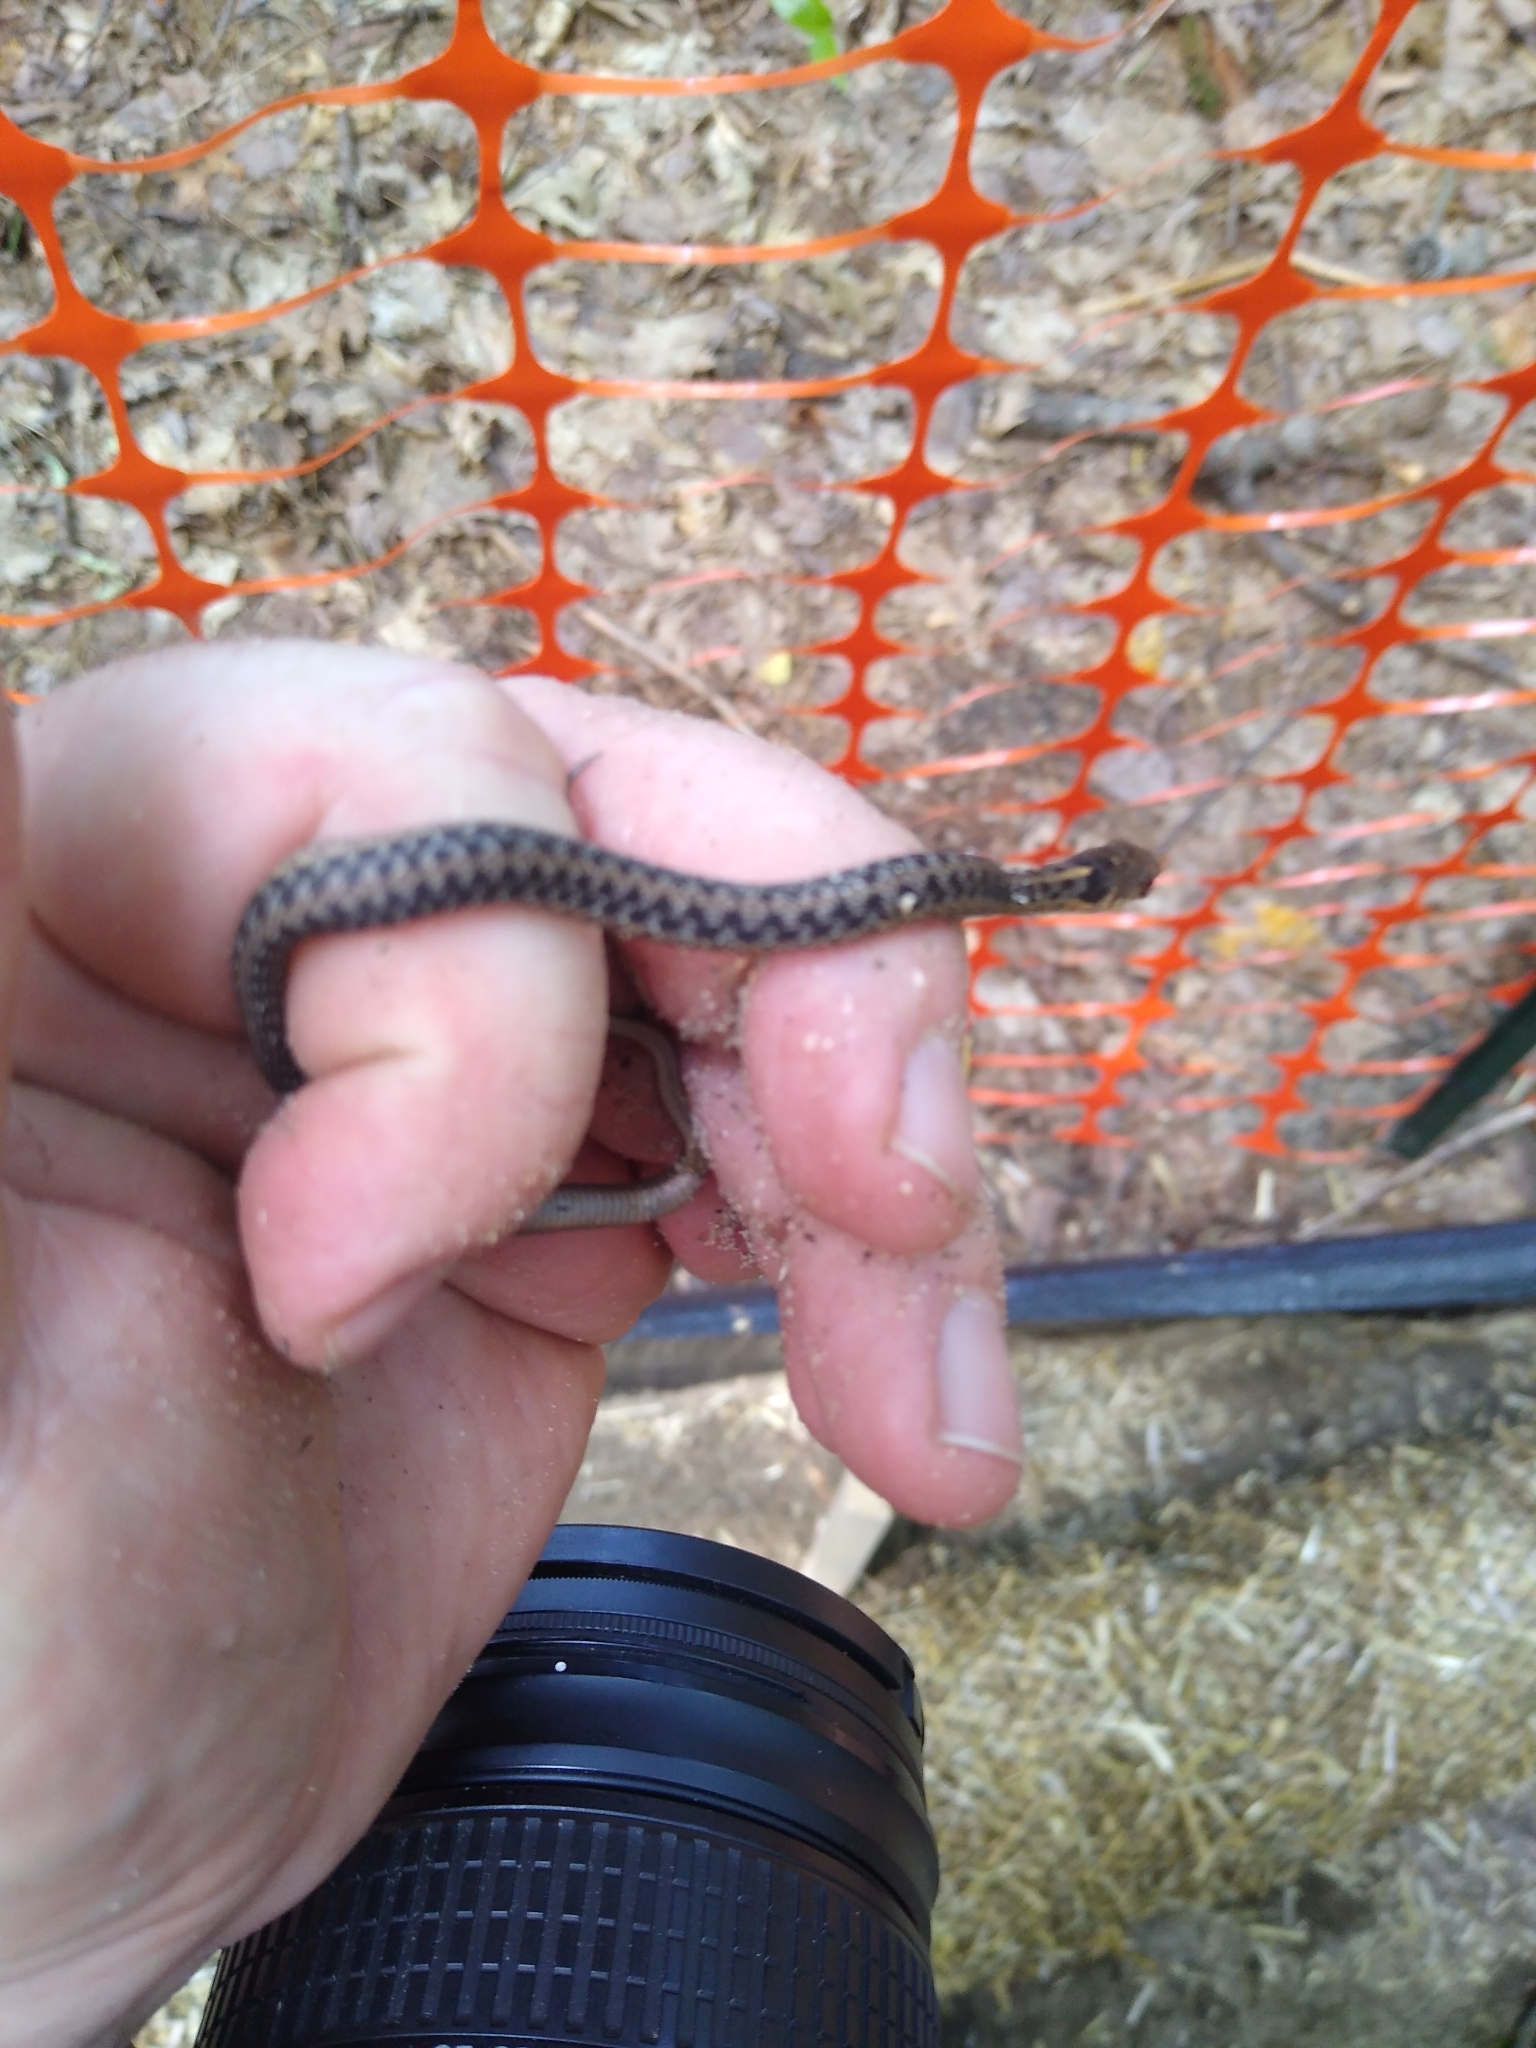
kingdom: Animalia
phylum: Chordata
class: Squamata
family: Colubridae
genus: Thamnophis
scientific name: Thamnophis sirtalis
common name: Common garter snake
